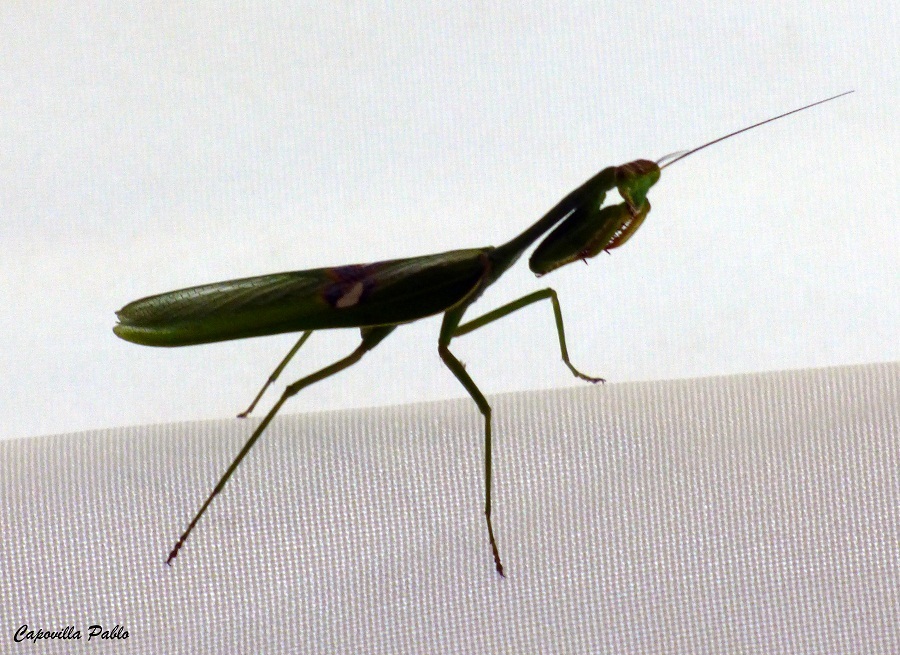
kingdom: Animalia
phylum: Arthropoda
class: Insecta
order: Mantodea
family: Mantidae
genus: Stagmatoptera
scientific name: Stagmatoptera hyaloptera
